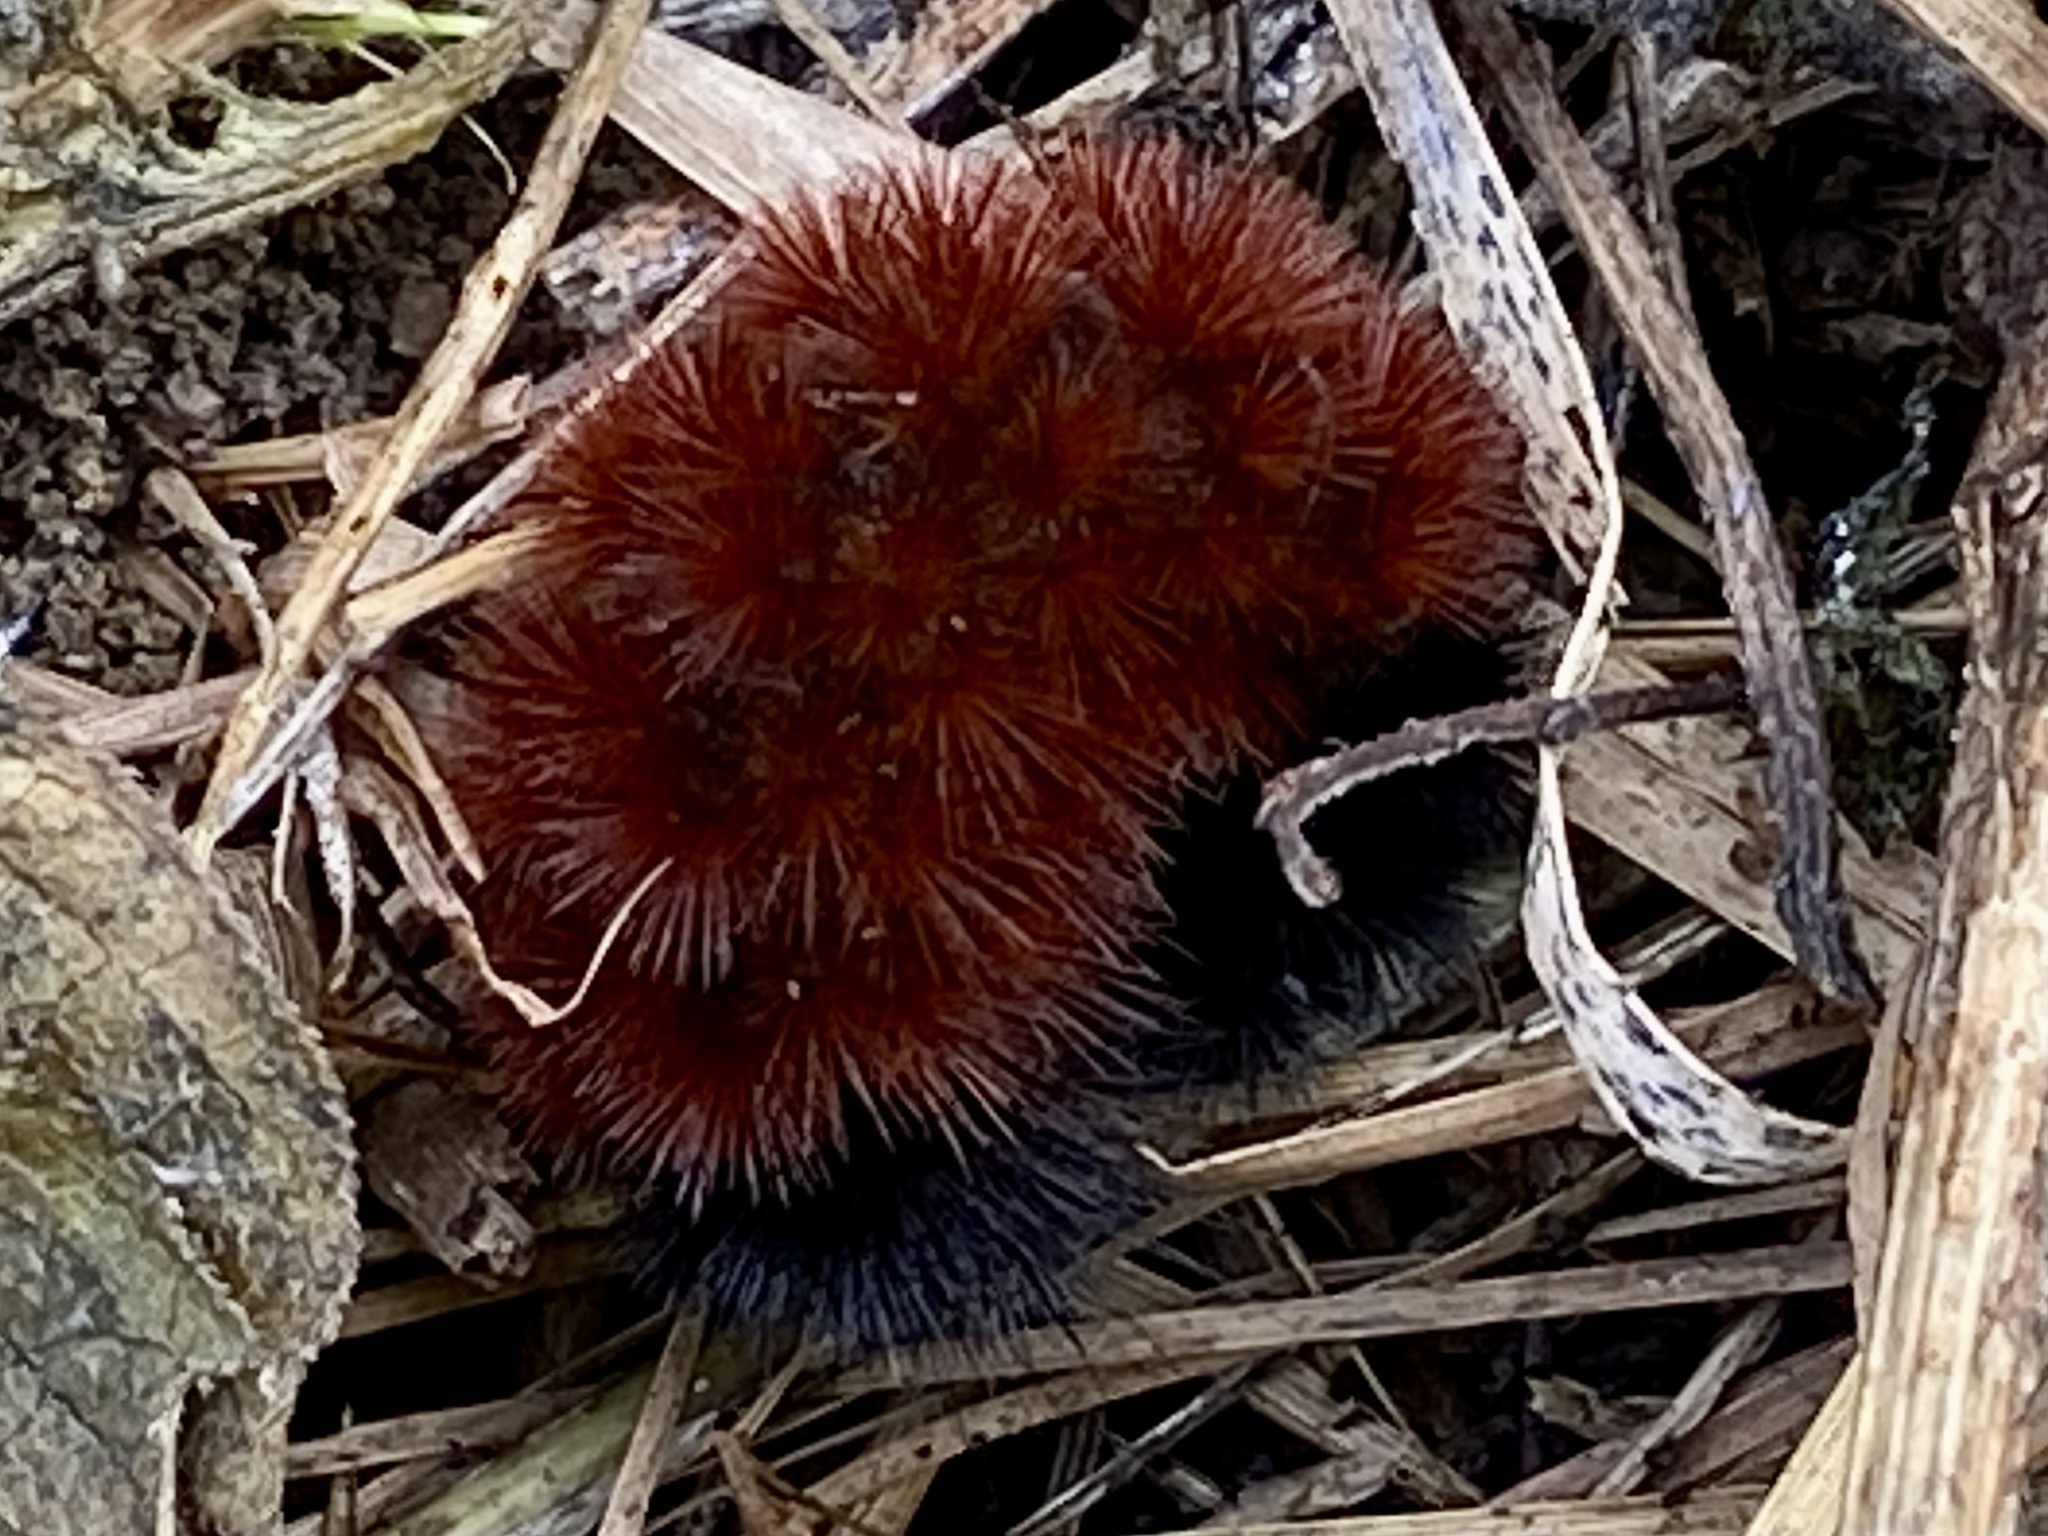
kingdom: Animalia
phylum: Arthropoda
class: Insecta
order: Lepidoptera
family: Erebidae
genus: Pyrrharctia
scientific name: Pyrrharctia isabella
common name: Isabella tiger moth
